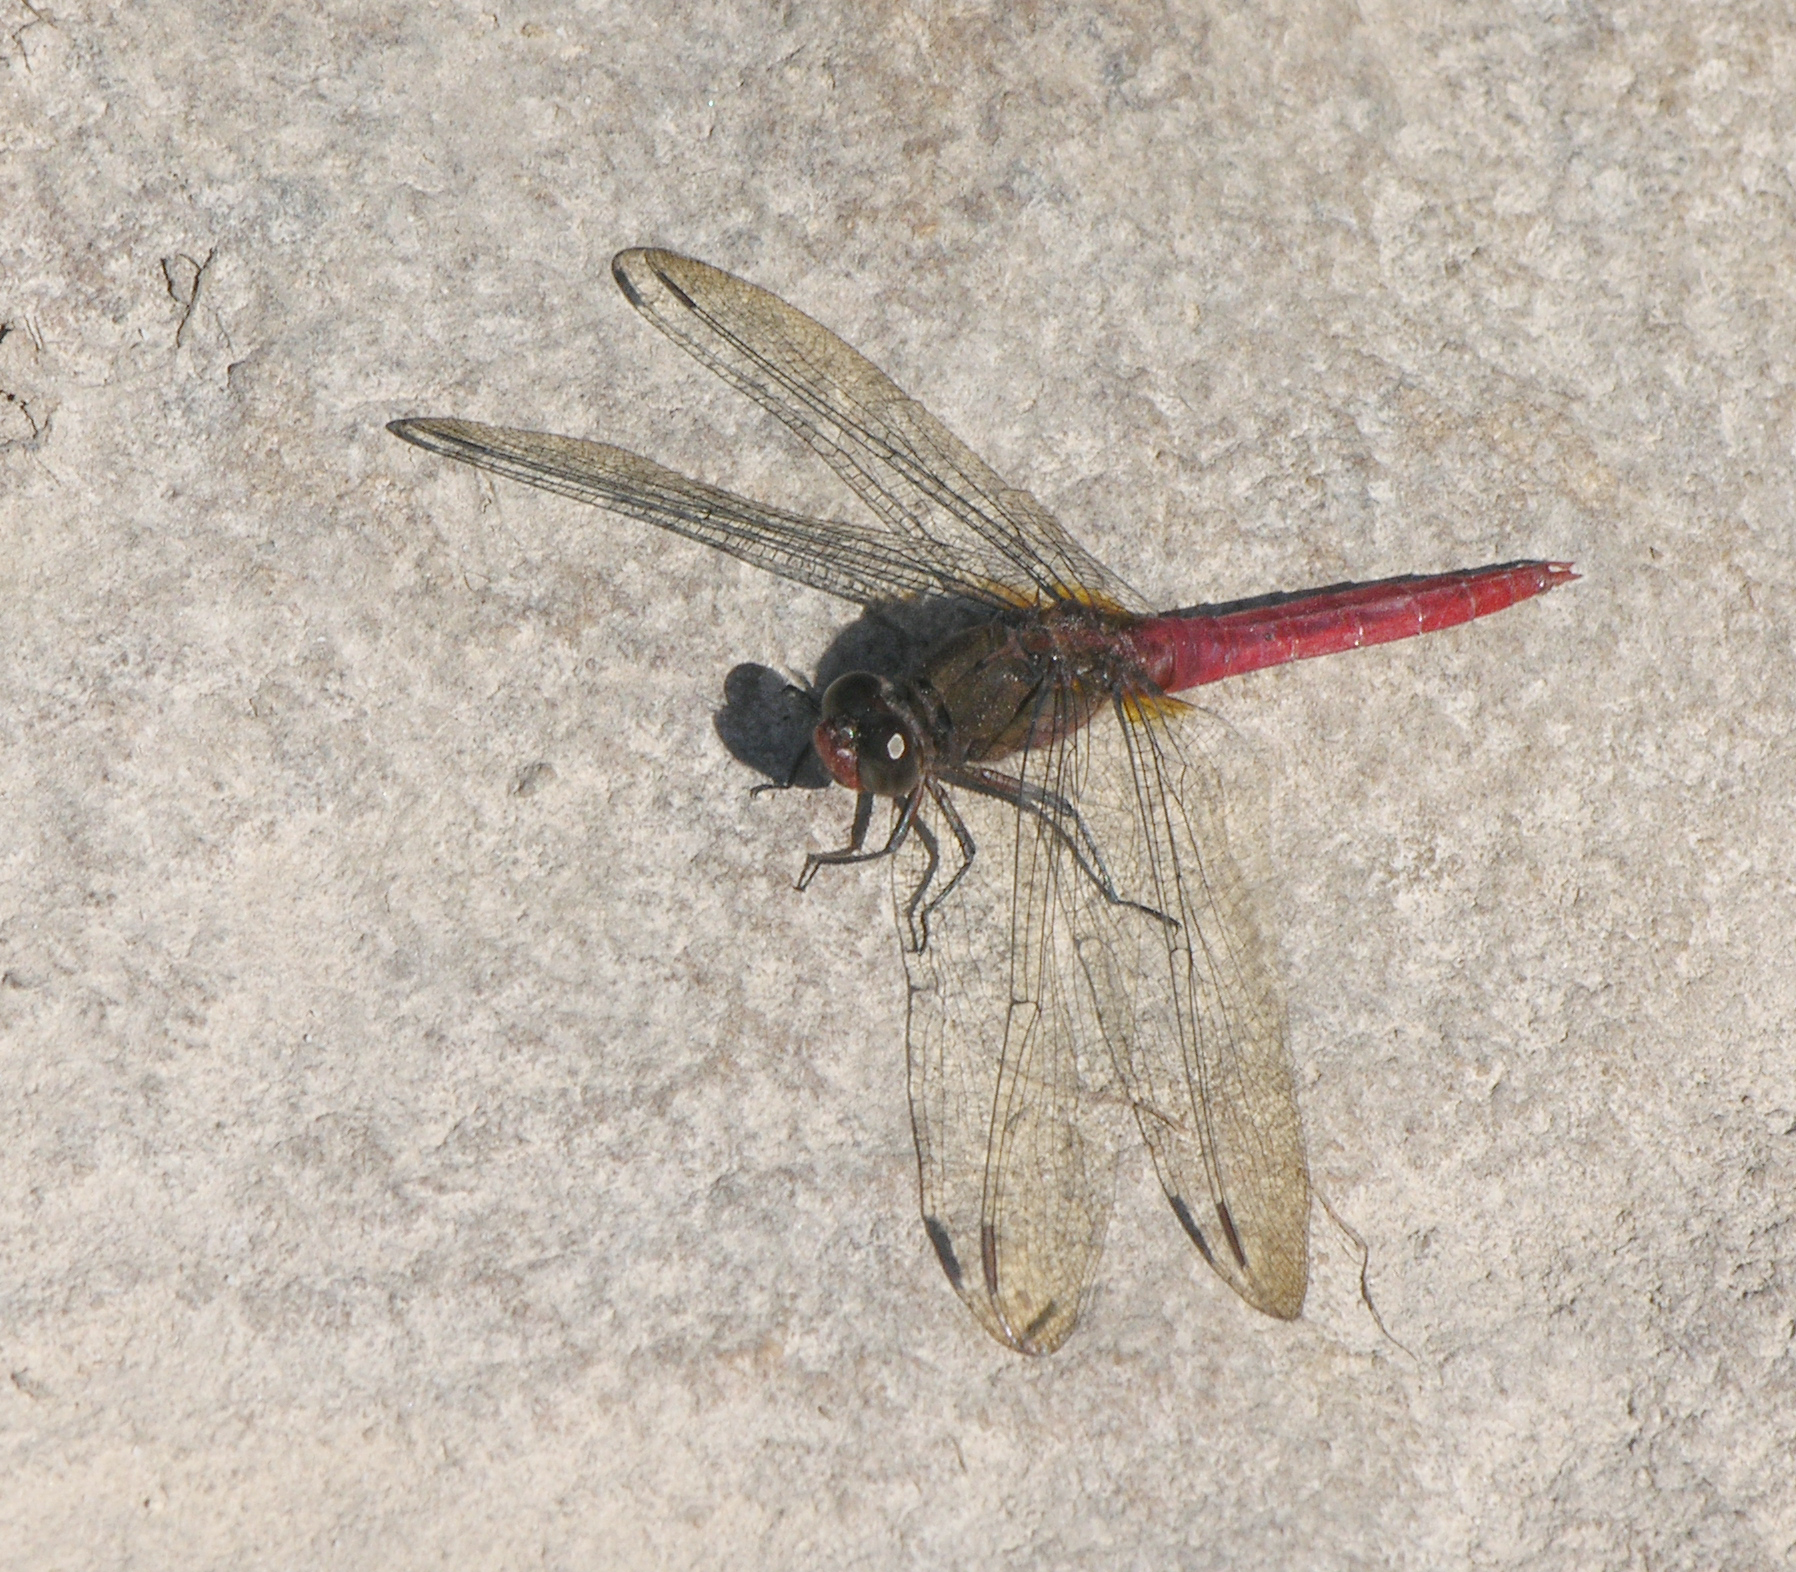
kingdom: Animalia
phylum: Arthropoda
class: Insecta
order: Odonata
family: Libellulidae
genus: Orthetrum
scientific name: Orthetrum pruinosum
